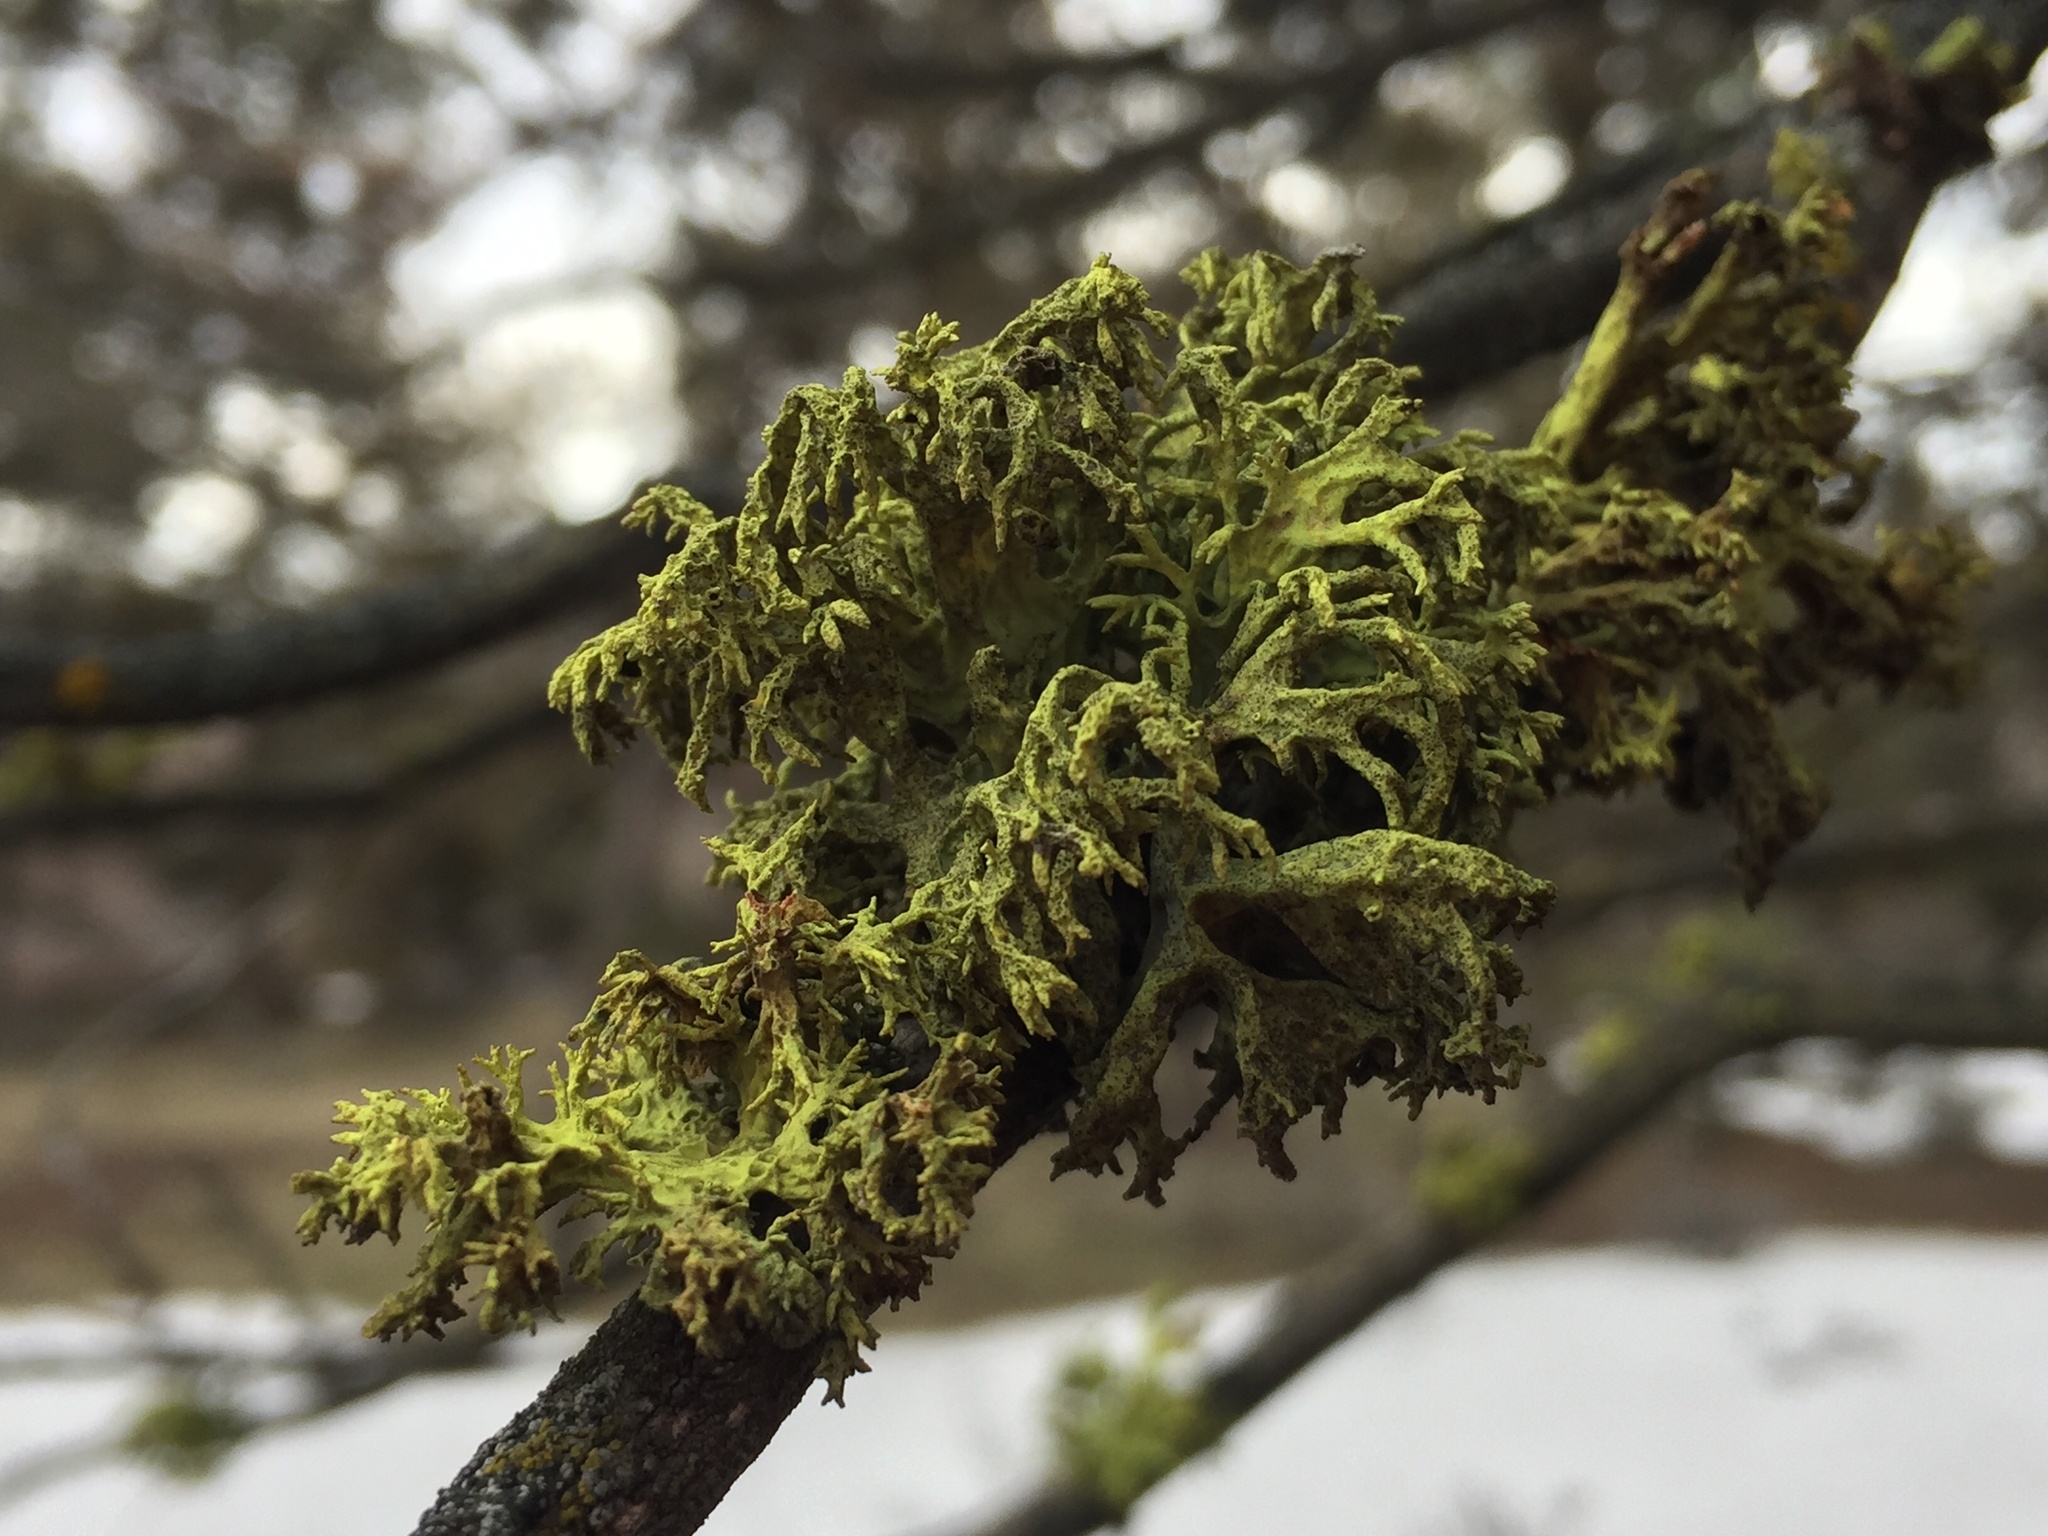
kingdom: Fungi
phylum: Ascomycota
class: Lecanoromycetes
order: Lecanorales
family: Parmeliaceae
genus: Letharia
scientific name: Letharia vulpina
